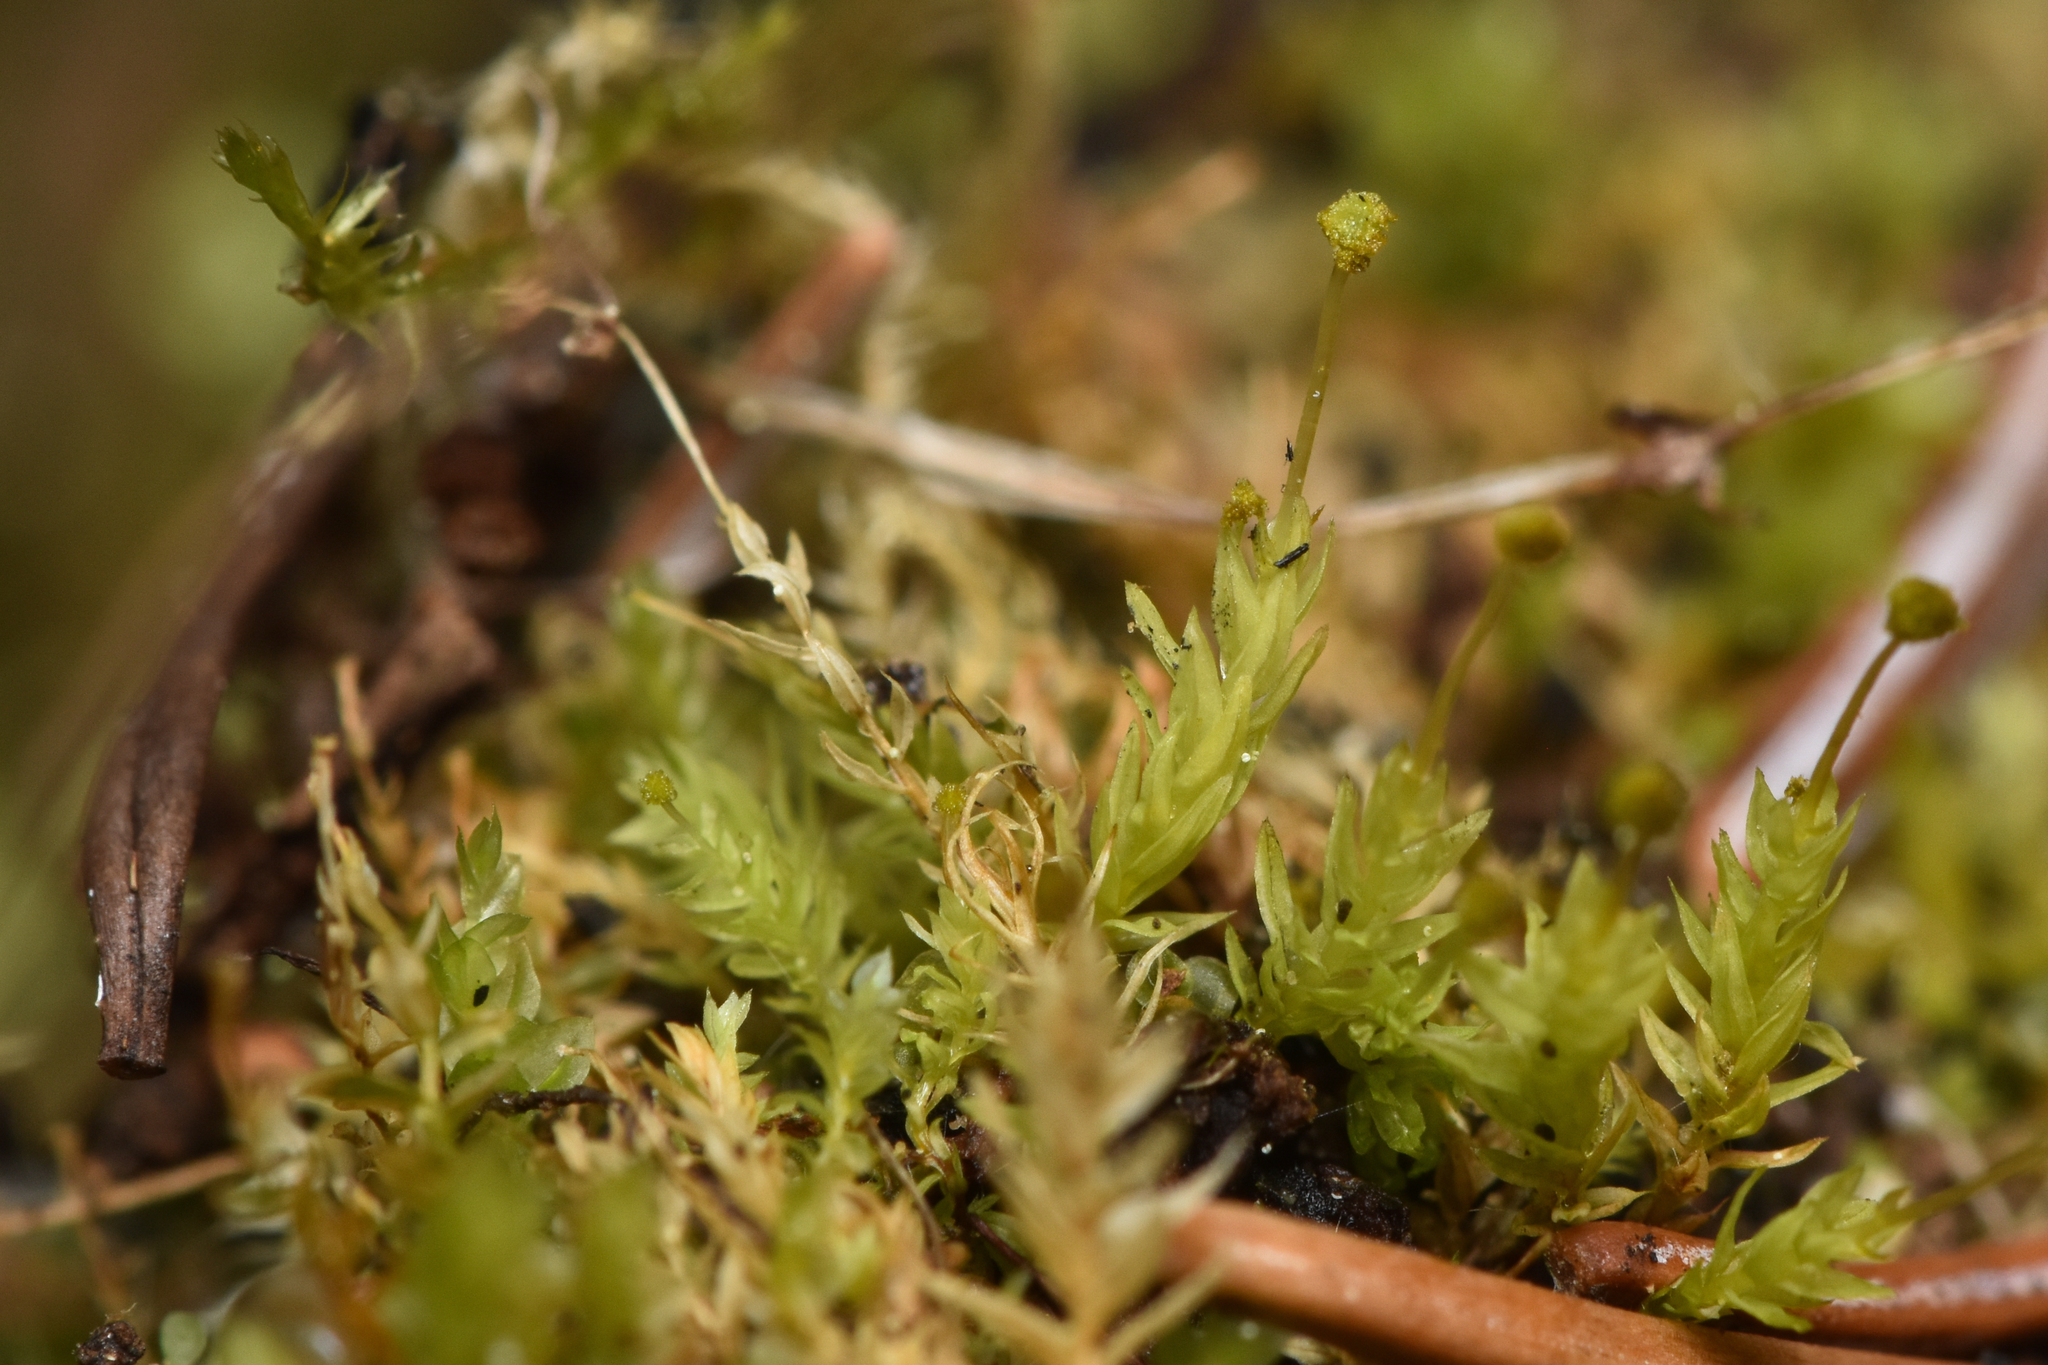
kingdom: Plantae
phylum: Bryophyta
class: Bryopsida
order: Aulacomniales
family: Aulacomniaceae
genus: Aulacomnium
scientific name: Aulacomnium androgynum
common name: Little groove moss
